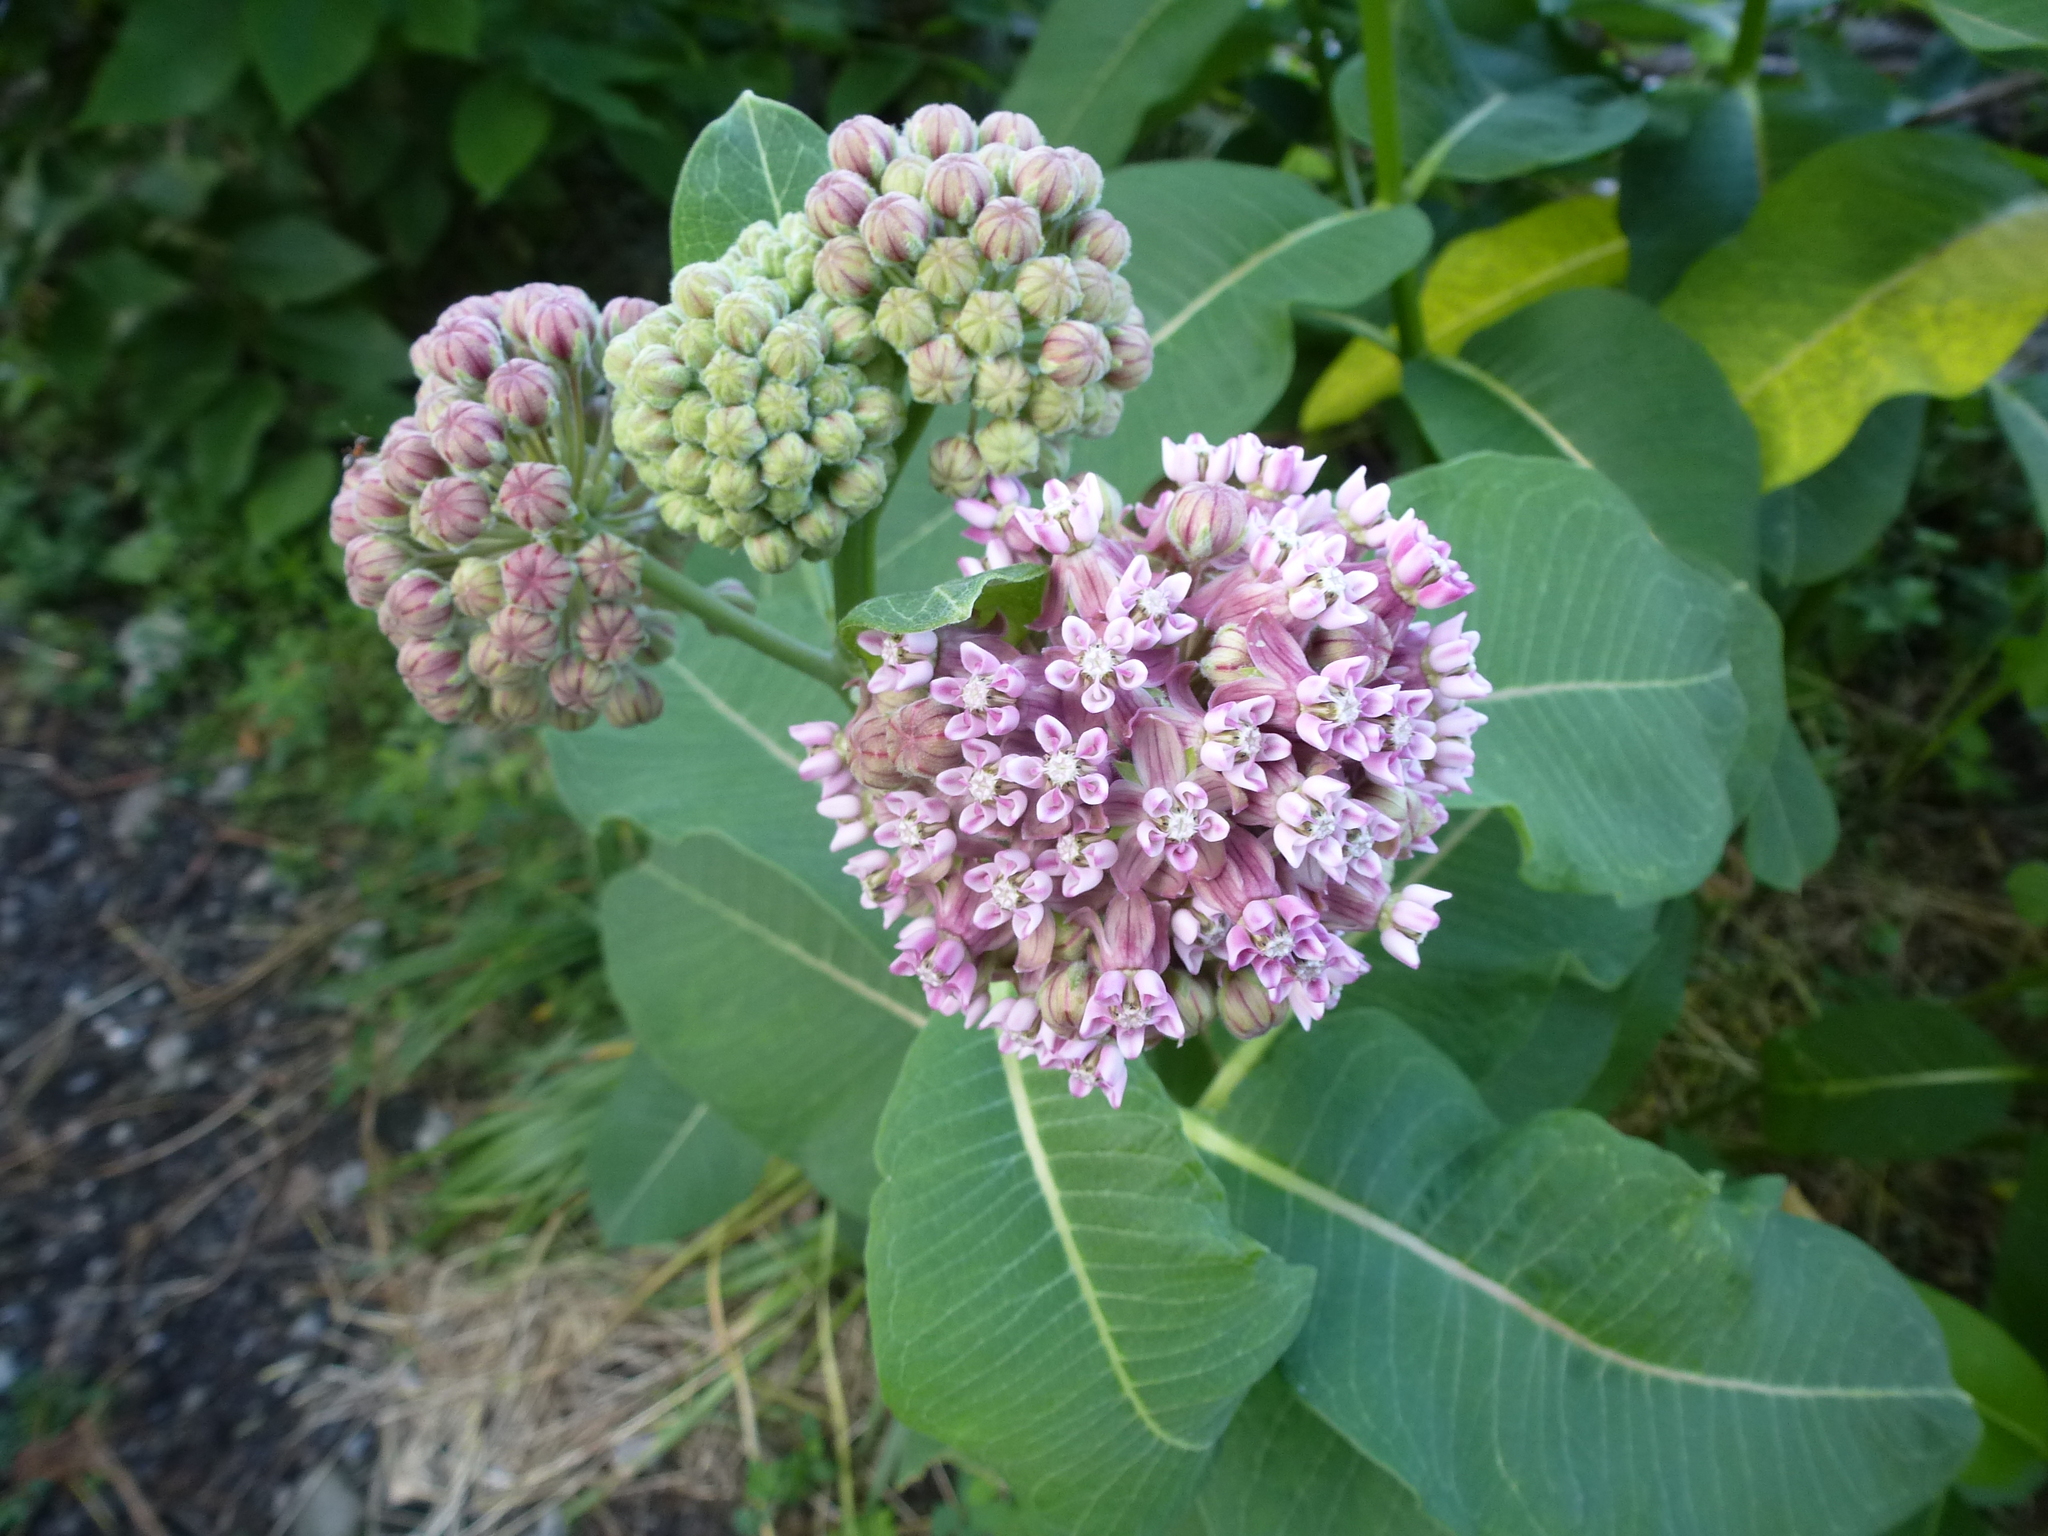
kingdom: Plantae
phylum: Tracheophyta
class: Magnoliopsida
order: Gentianales
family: Apocynaceae
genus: Asclepias
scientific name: Asclepias syriaca
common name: Common milkweed
